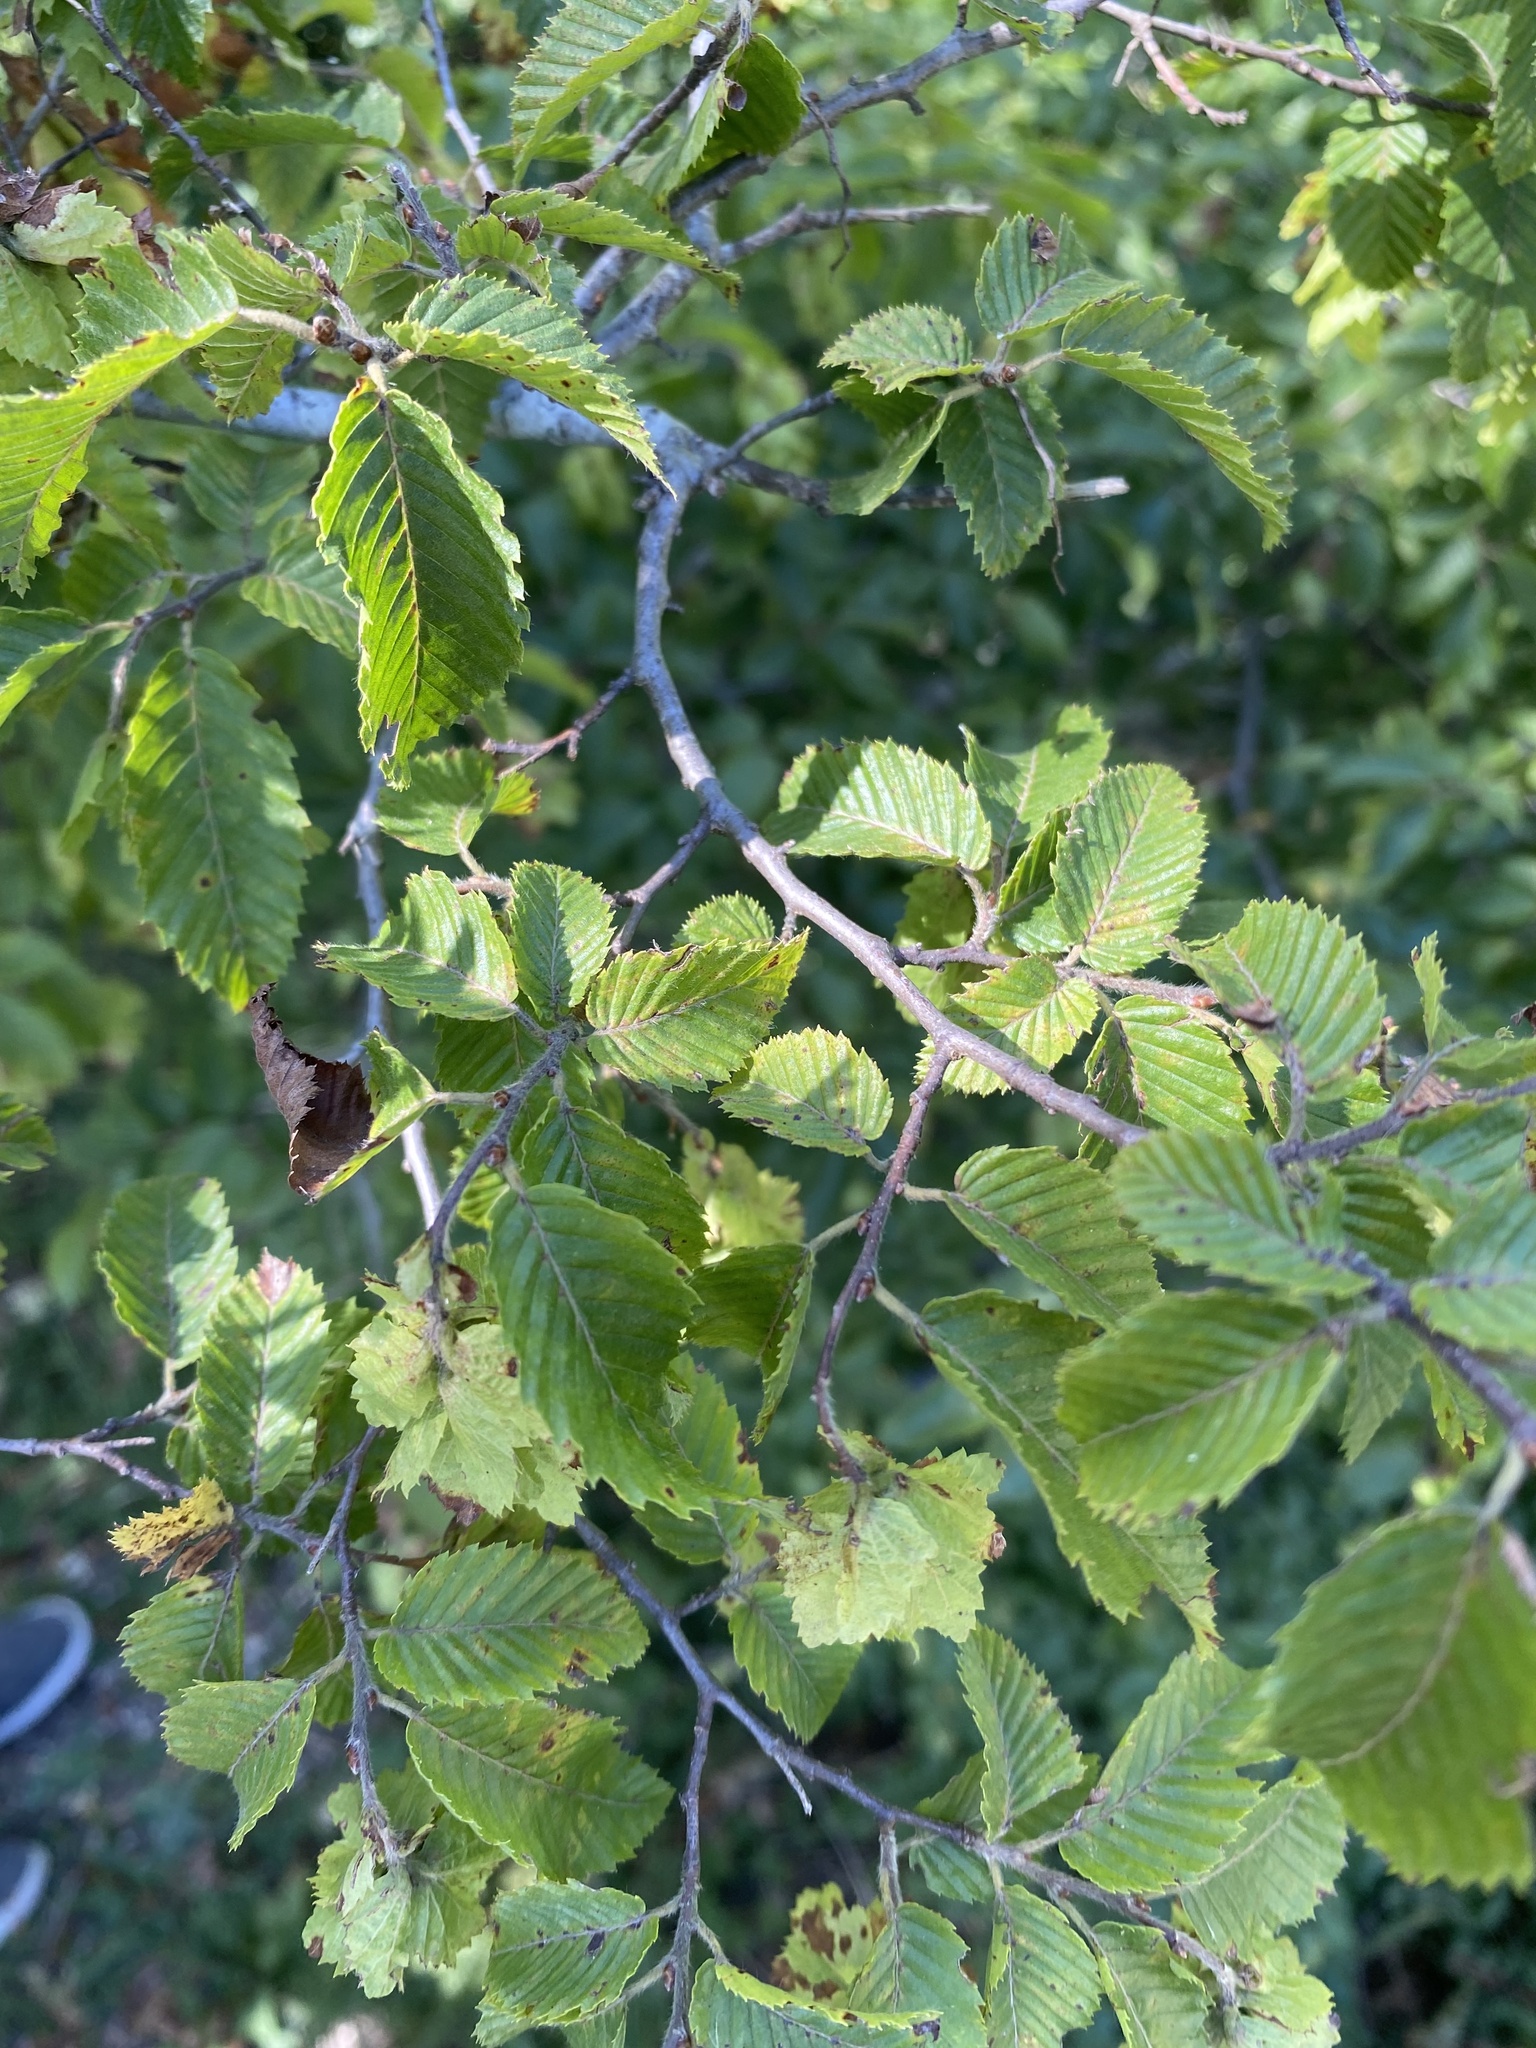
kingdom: Plantae
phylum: Tracheophyta
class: Magnoliopsida
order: Fagales
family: Betulaceae
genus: Carpinus
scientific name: Carpinus orientalis
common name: Eastern hornbeam
